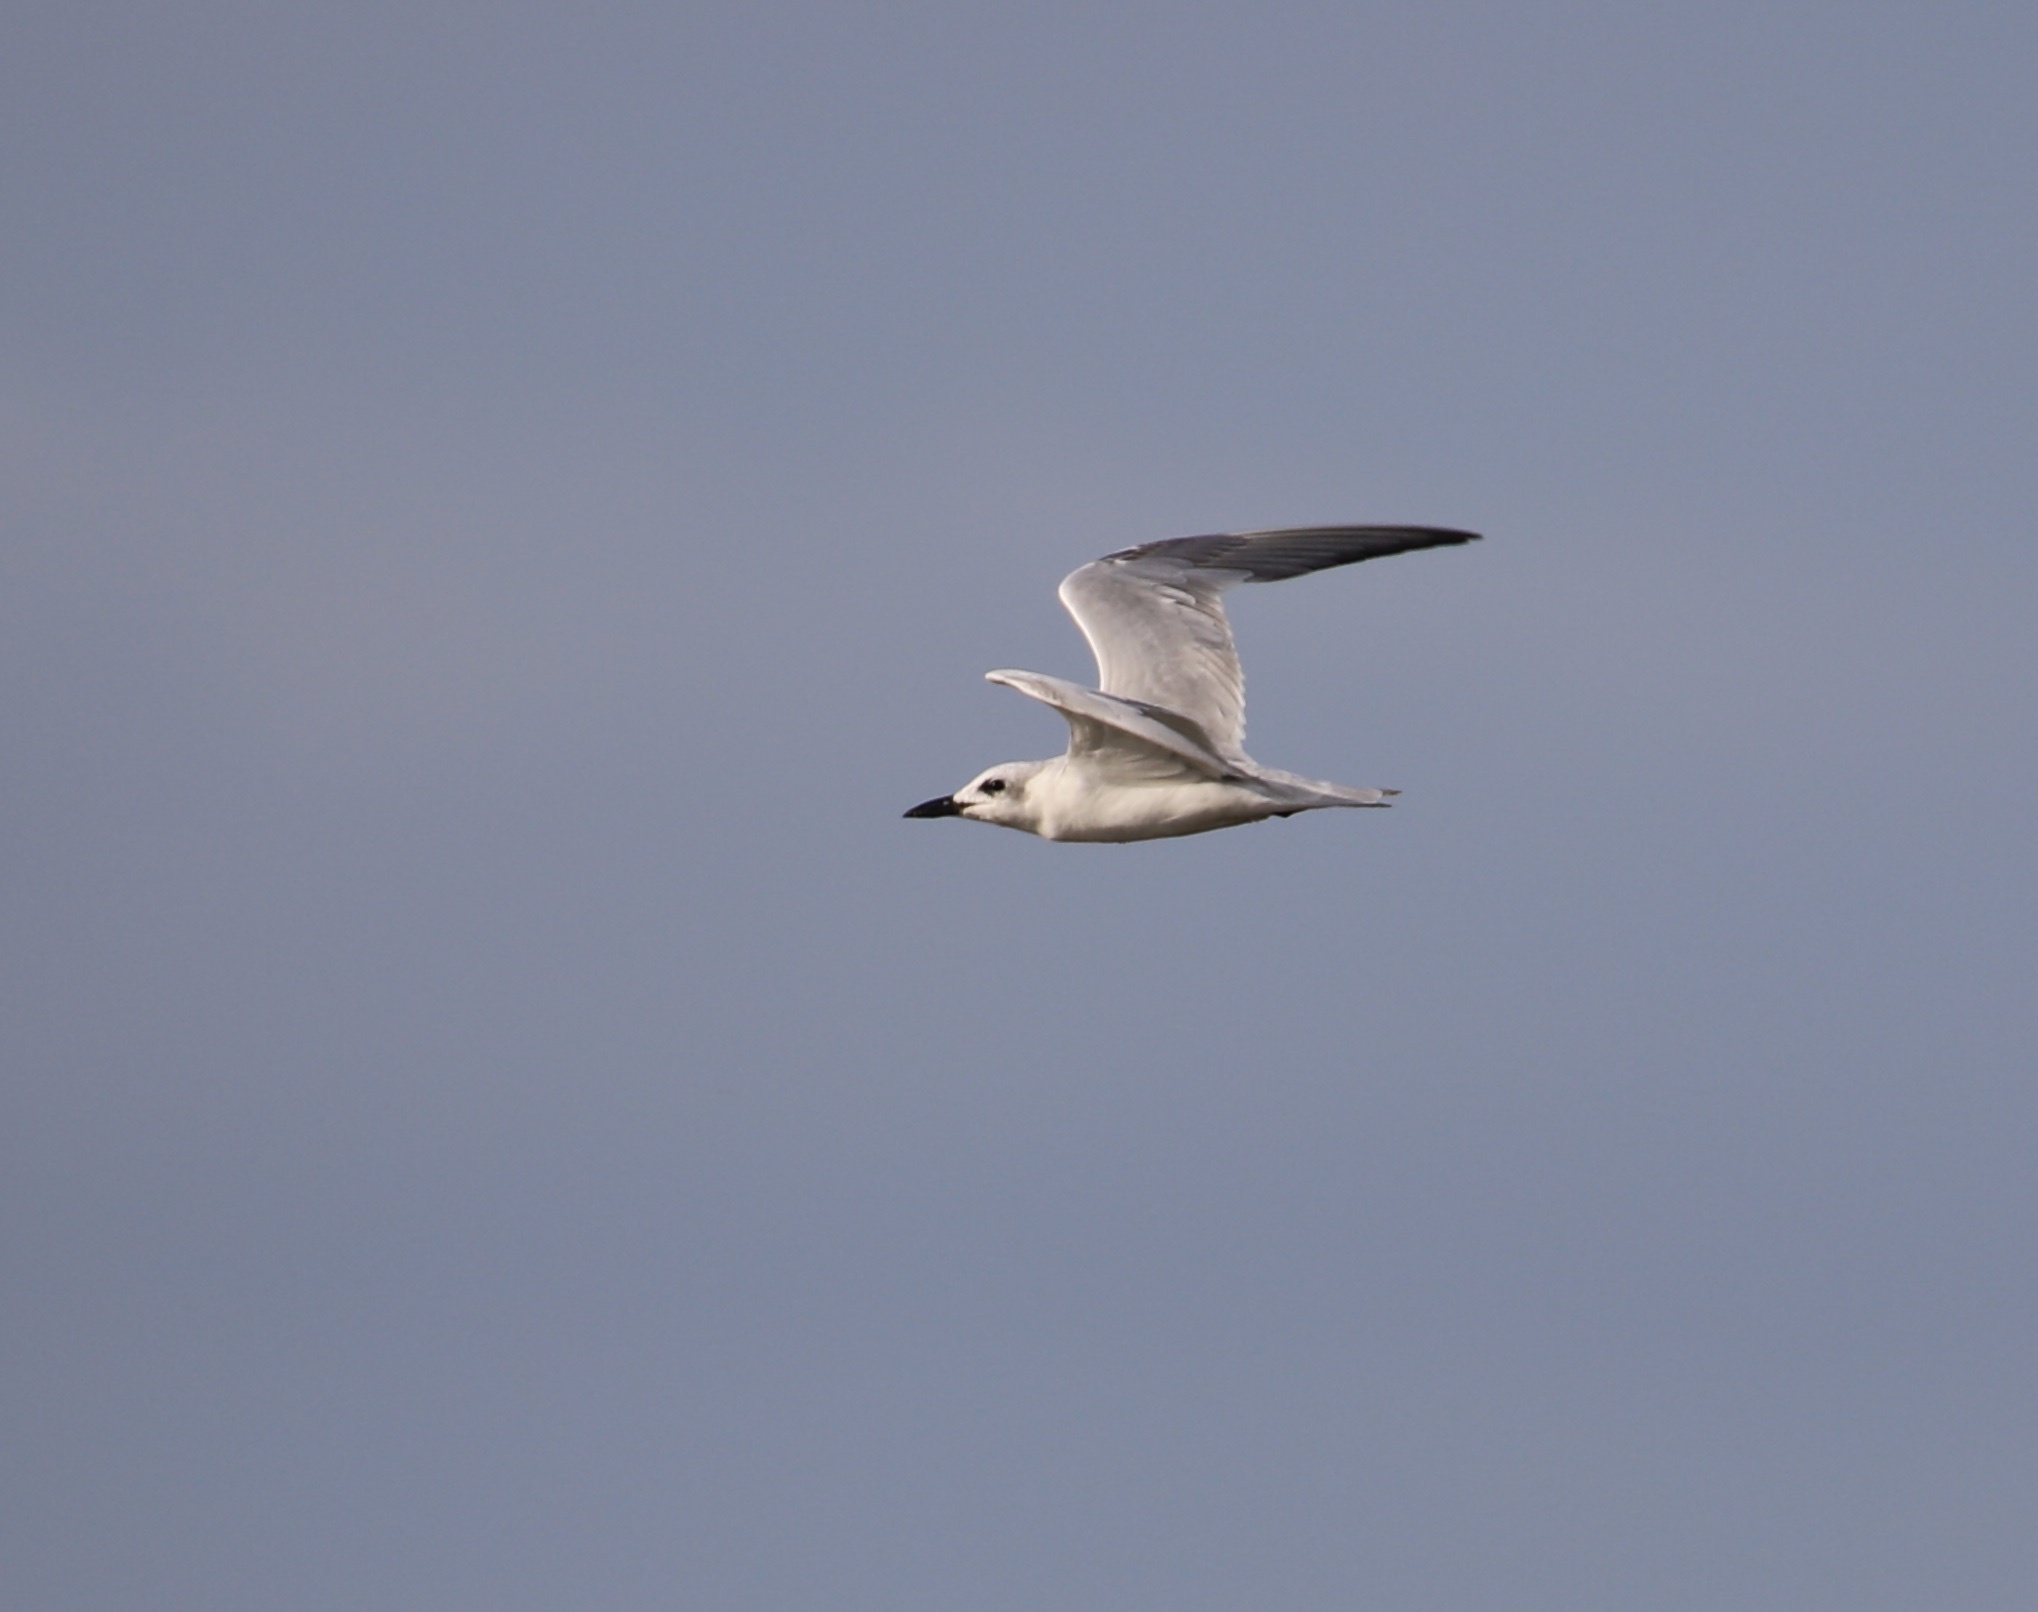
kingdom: Animalia
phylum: Chordata
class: Aves
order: Charadriiformes
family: Laridae
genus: Gelochelidon
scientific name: Gelochelidon nilotica
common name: Gull-billed tern
